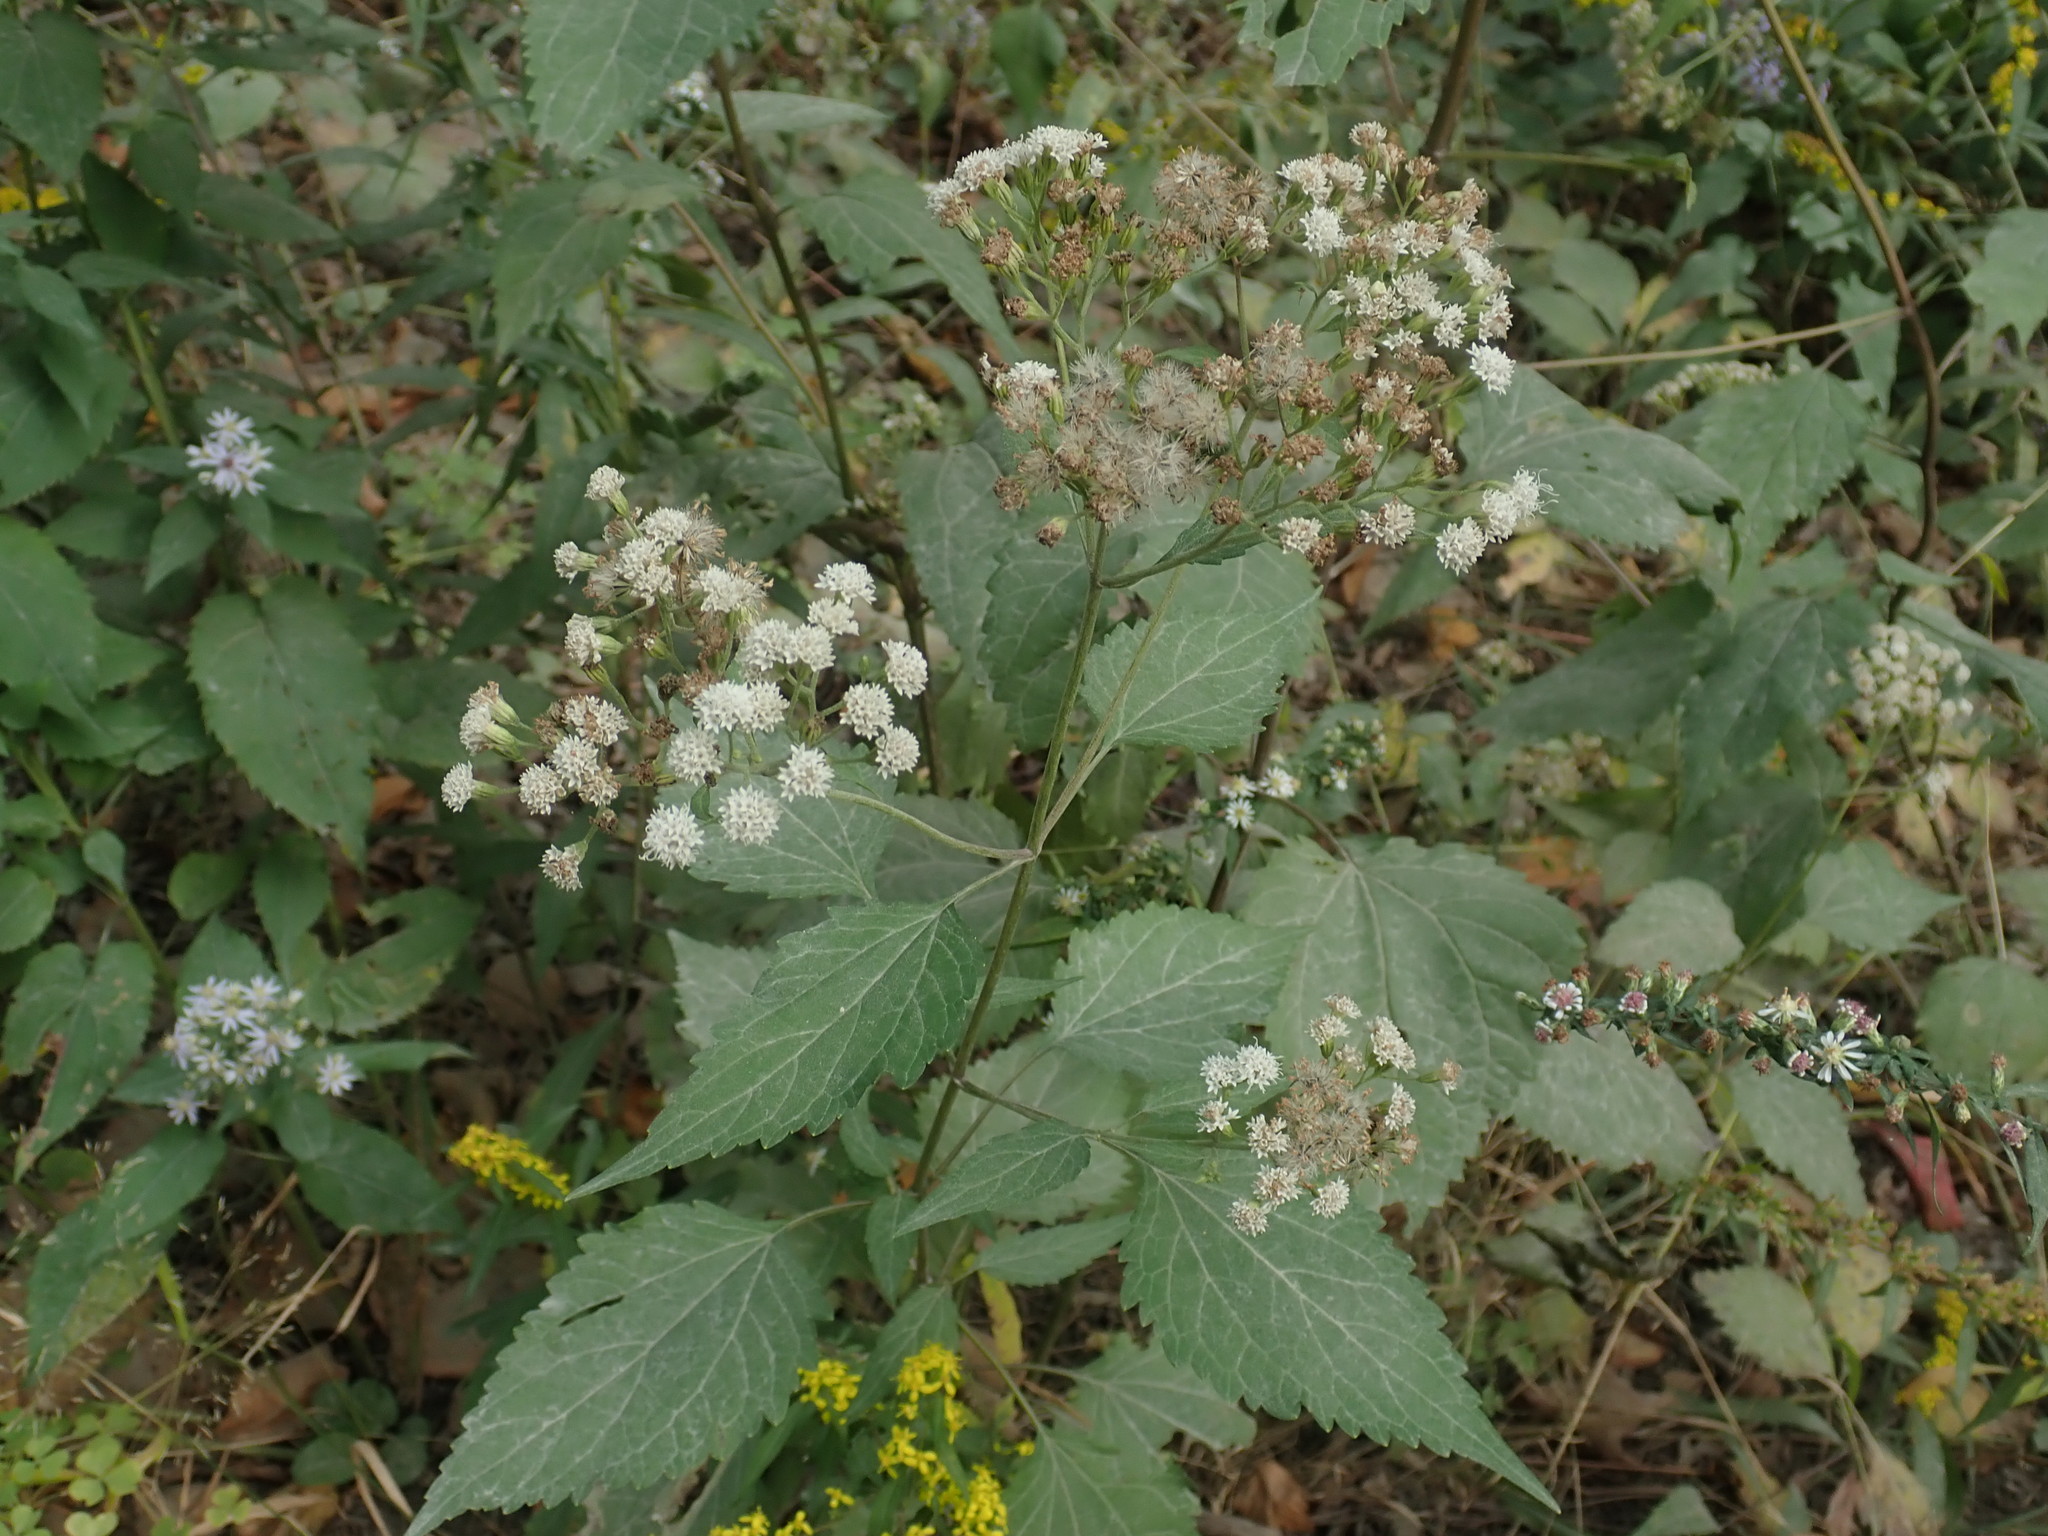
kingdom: Plantae
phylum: Tracheophyta
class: Magnoliopsida
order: Asterales
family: Asteraceae
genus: Ageratina
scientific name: Ageratina altissima
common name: White snakeroot
